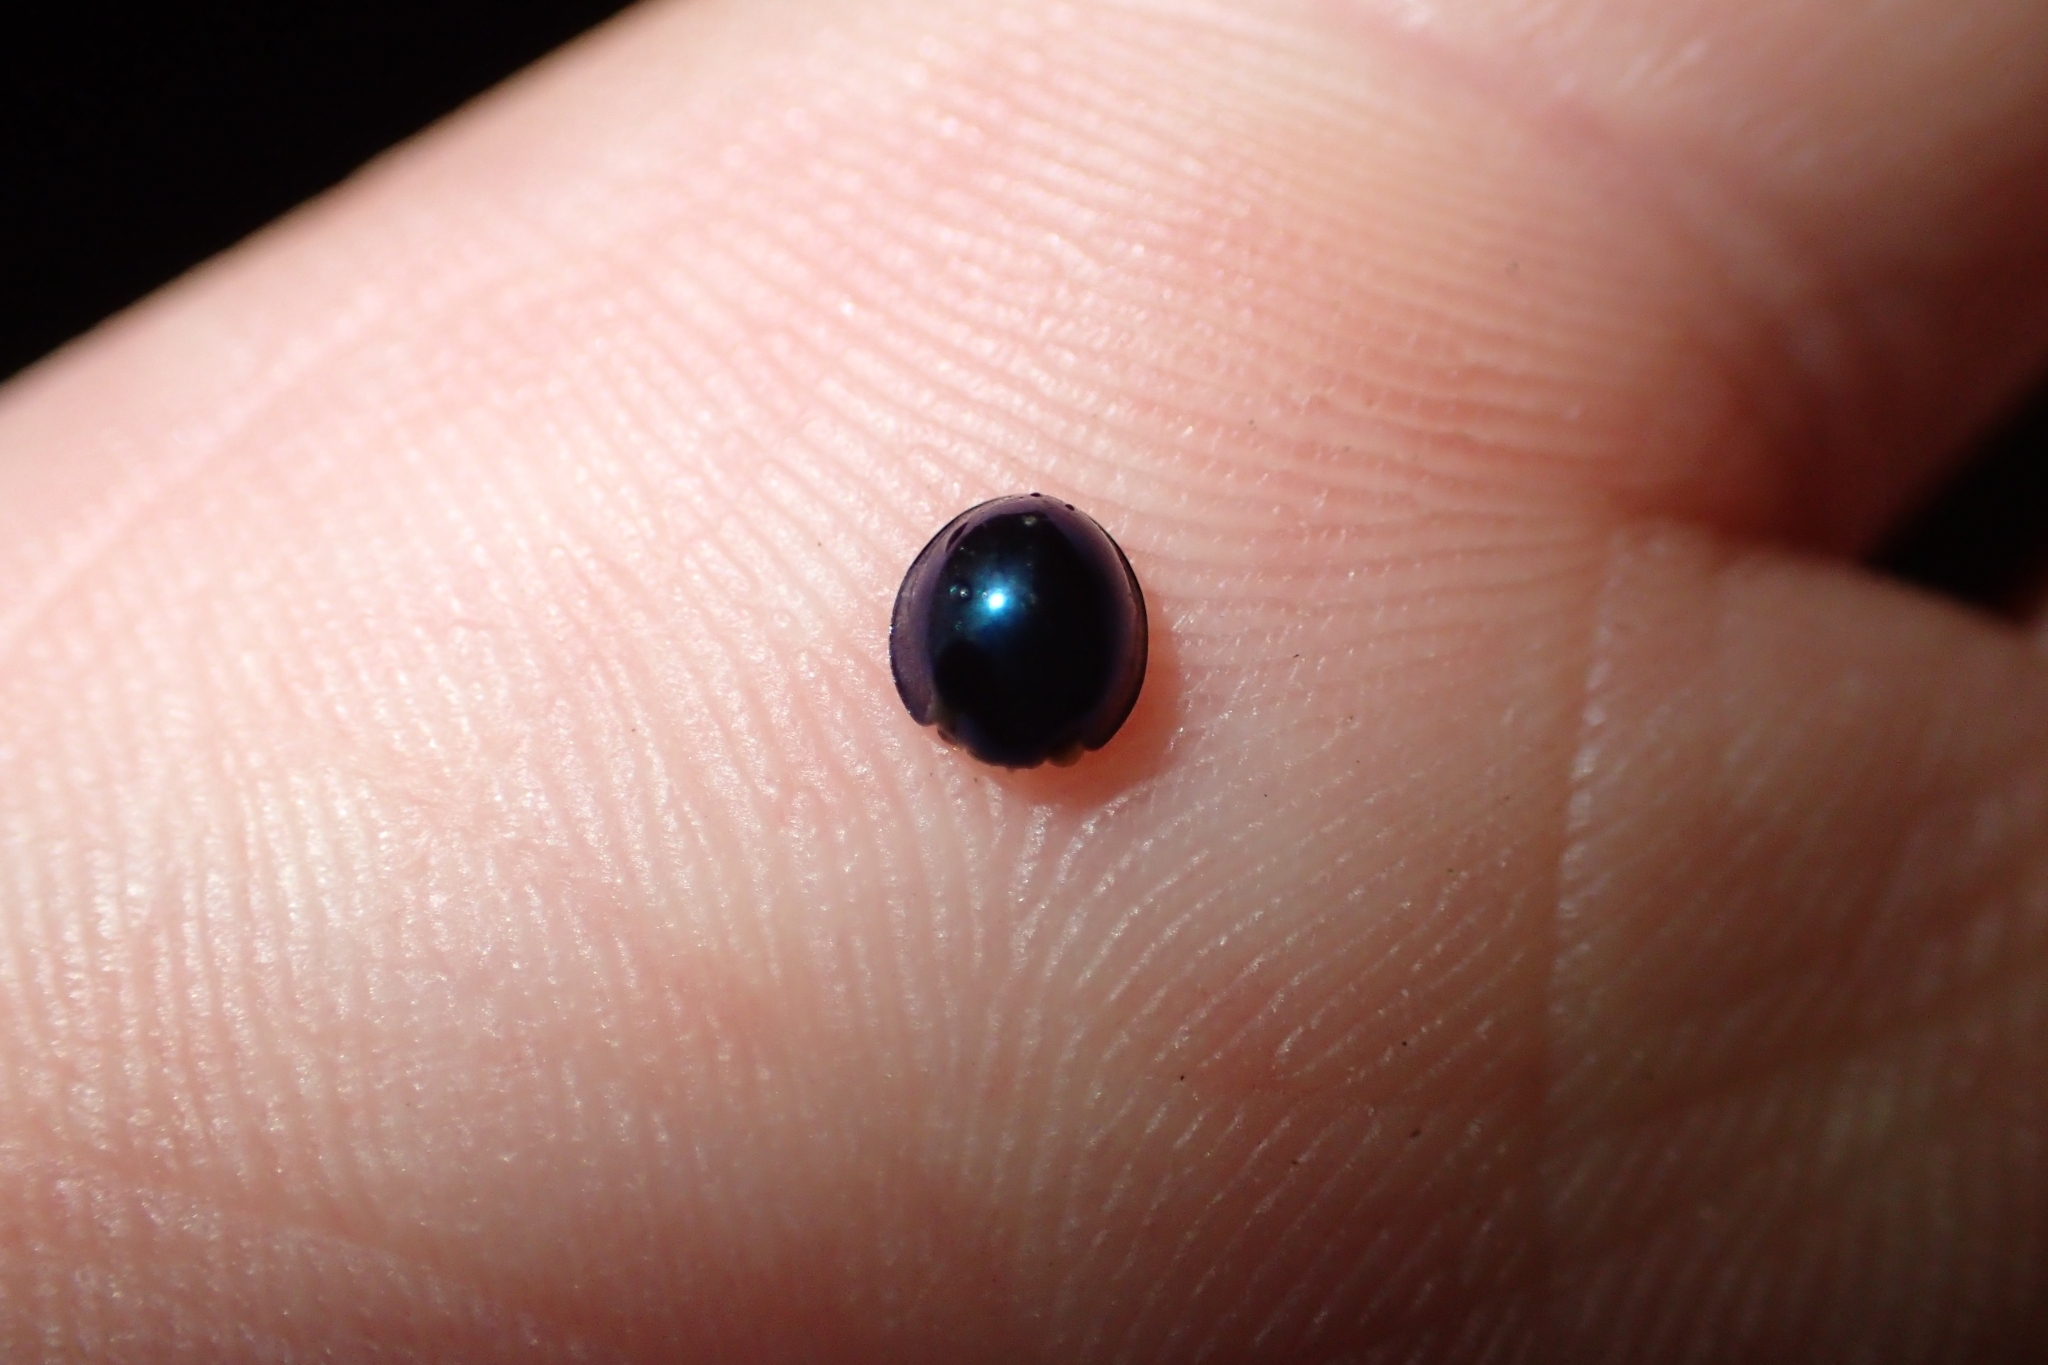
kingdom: Animalia
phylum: Arthropoda
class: Insecta
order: Coleoptera
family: Coccinellidae
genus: Halmus
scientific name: Halmus chalybeus
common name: Steel blue ladybird beetle
